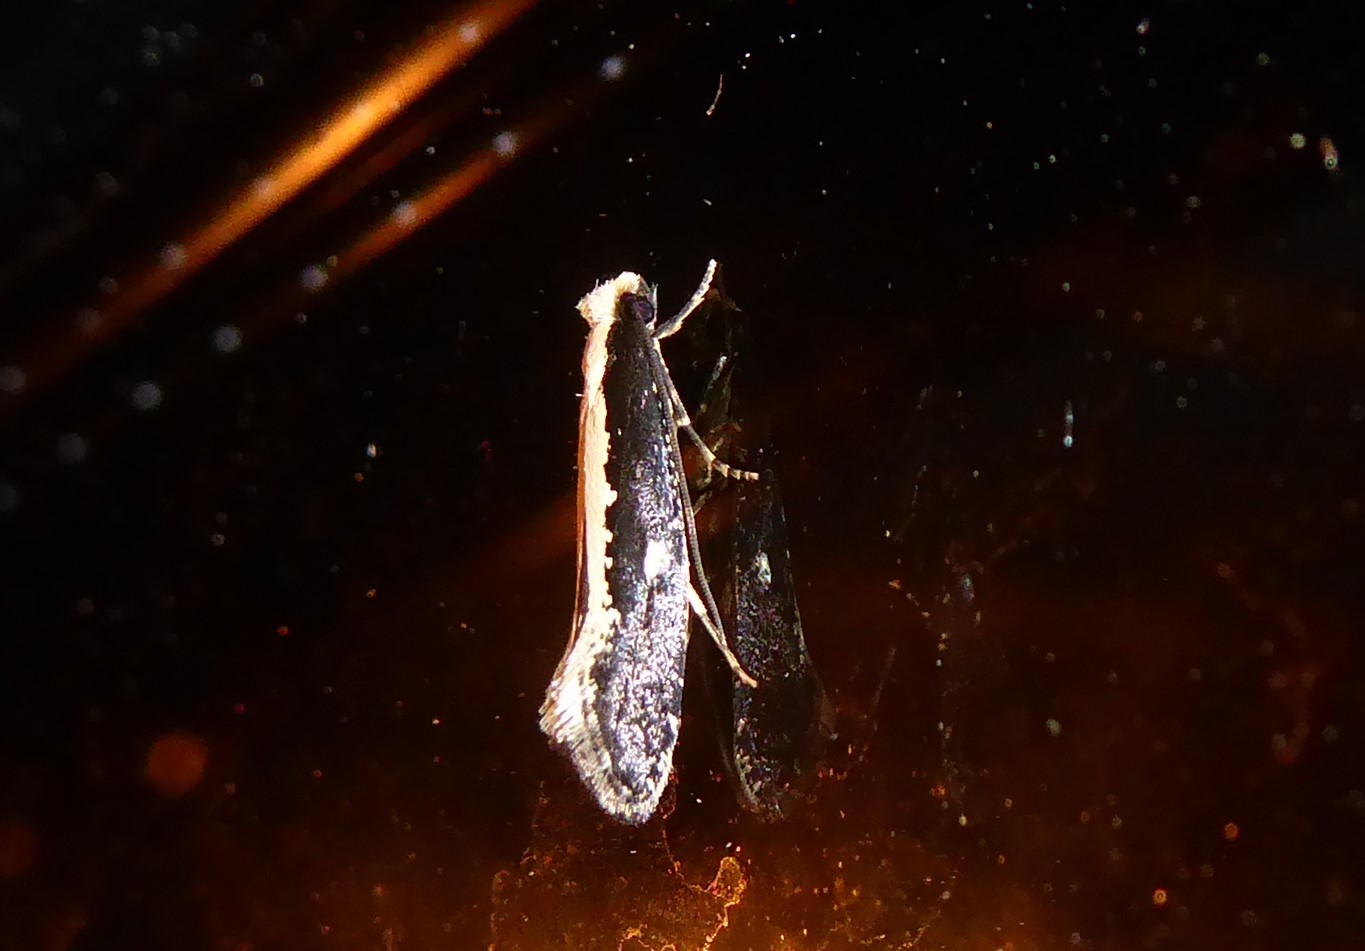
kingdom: Animalia
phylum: Arthropoda
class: Insecta
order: Lepidoptera
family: Tineidae
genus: Monopis
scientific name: Monopis ethelella
